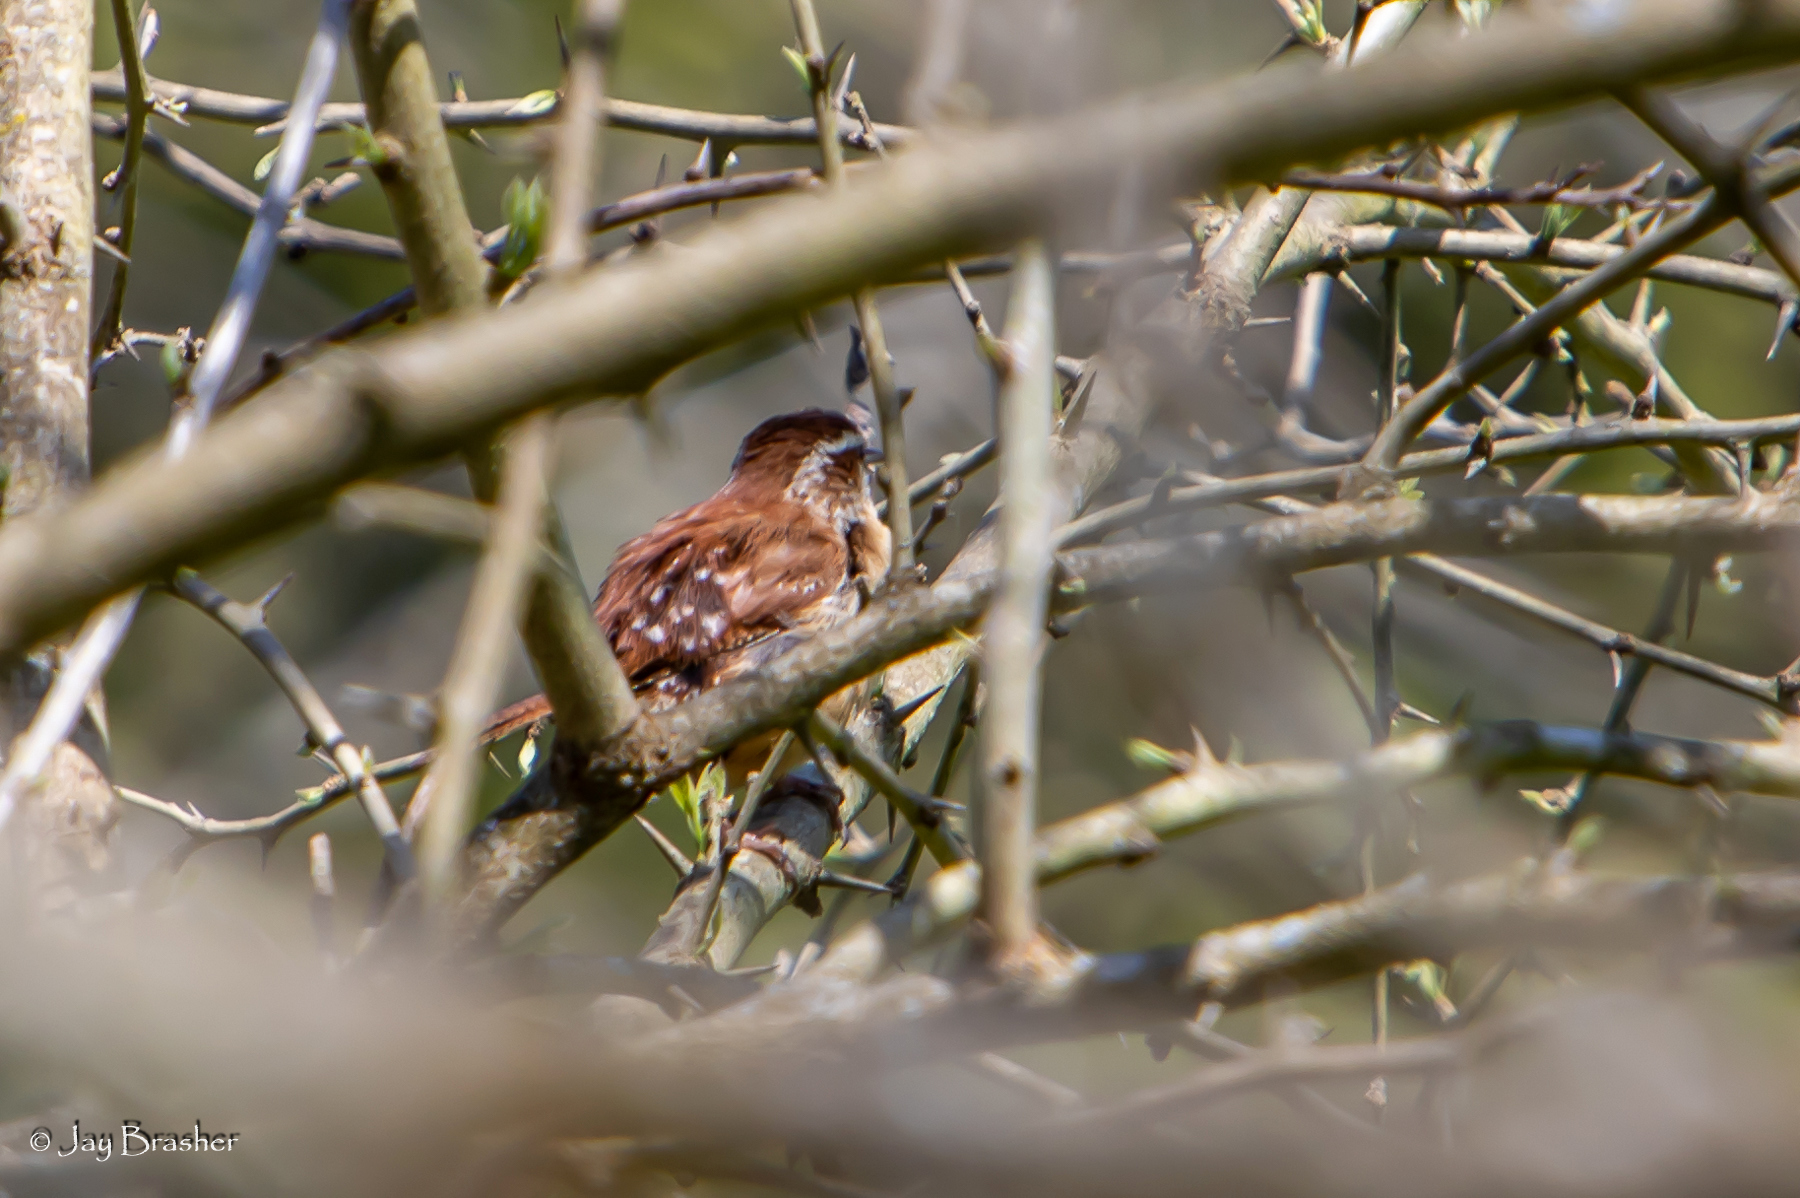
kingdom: Animalia
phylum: Chordata
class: Aves
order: Passeriformes
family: Troglodytidae
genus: Thryothorus
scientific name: Thryothorus ludovicianus
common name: Carolina wren
